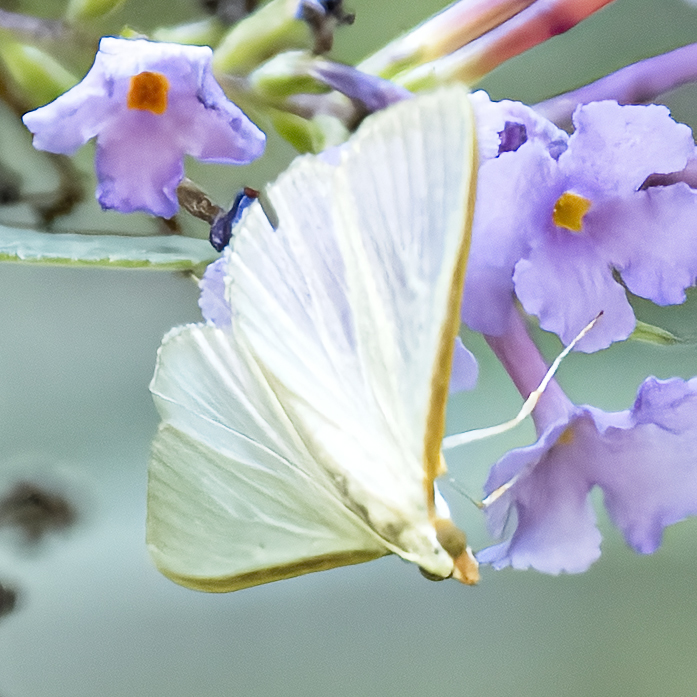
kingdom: Animalia
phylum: Arthropoda
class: Insecta
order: Lepidoptera
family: Crambidae
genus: Diaphania
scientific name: Diaphania costata
